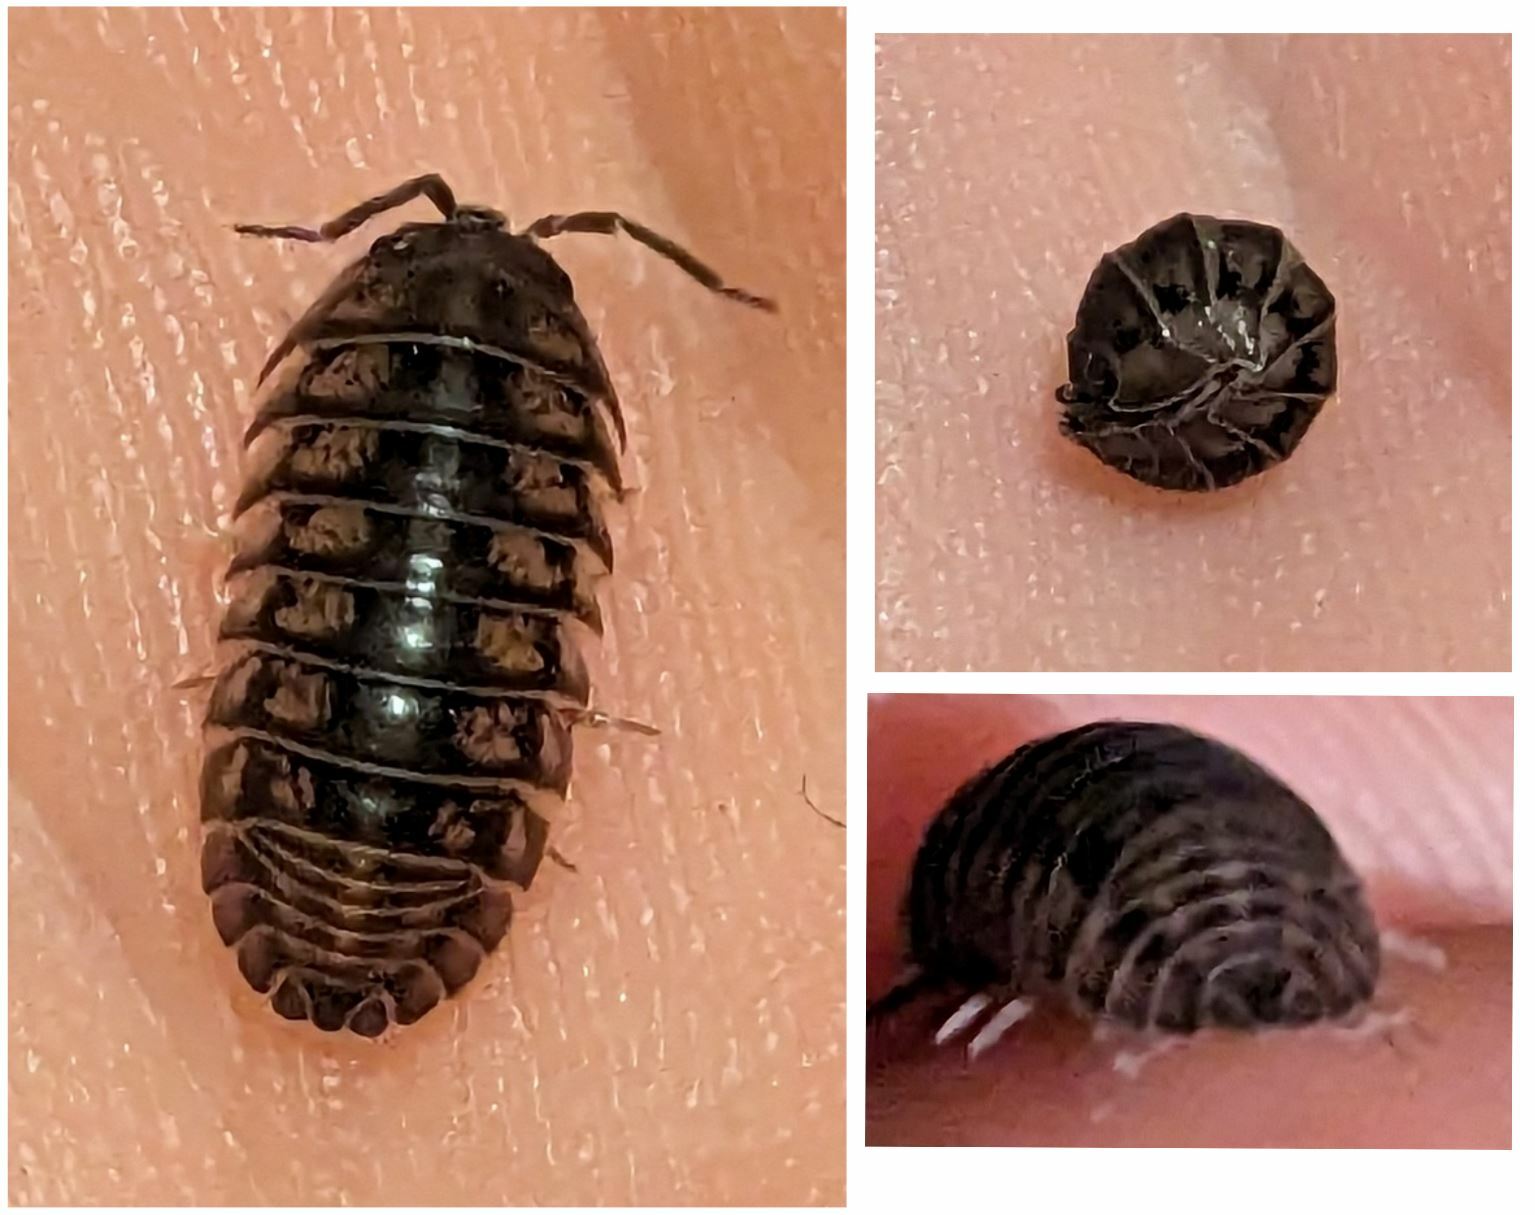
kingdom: Animalia
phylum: Arthropoda
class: Malacostraca
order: Isopoda
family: Armadillidiidae
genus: Armadillidium
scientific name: Armadillidium nasatum
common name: Isopod
